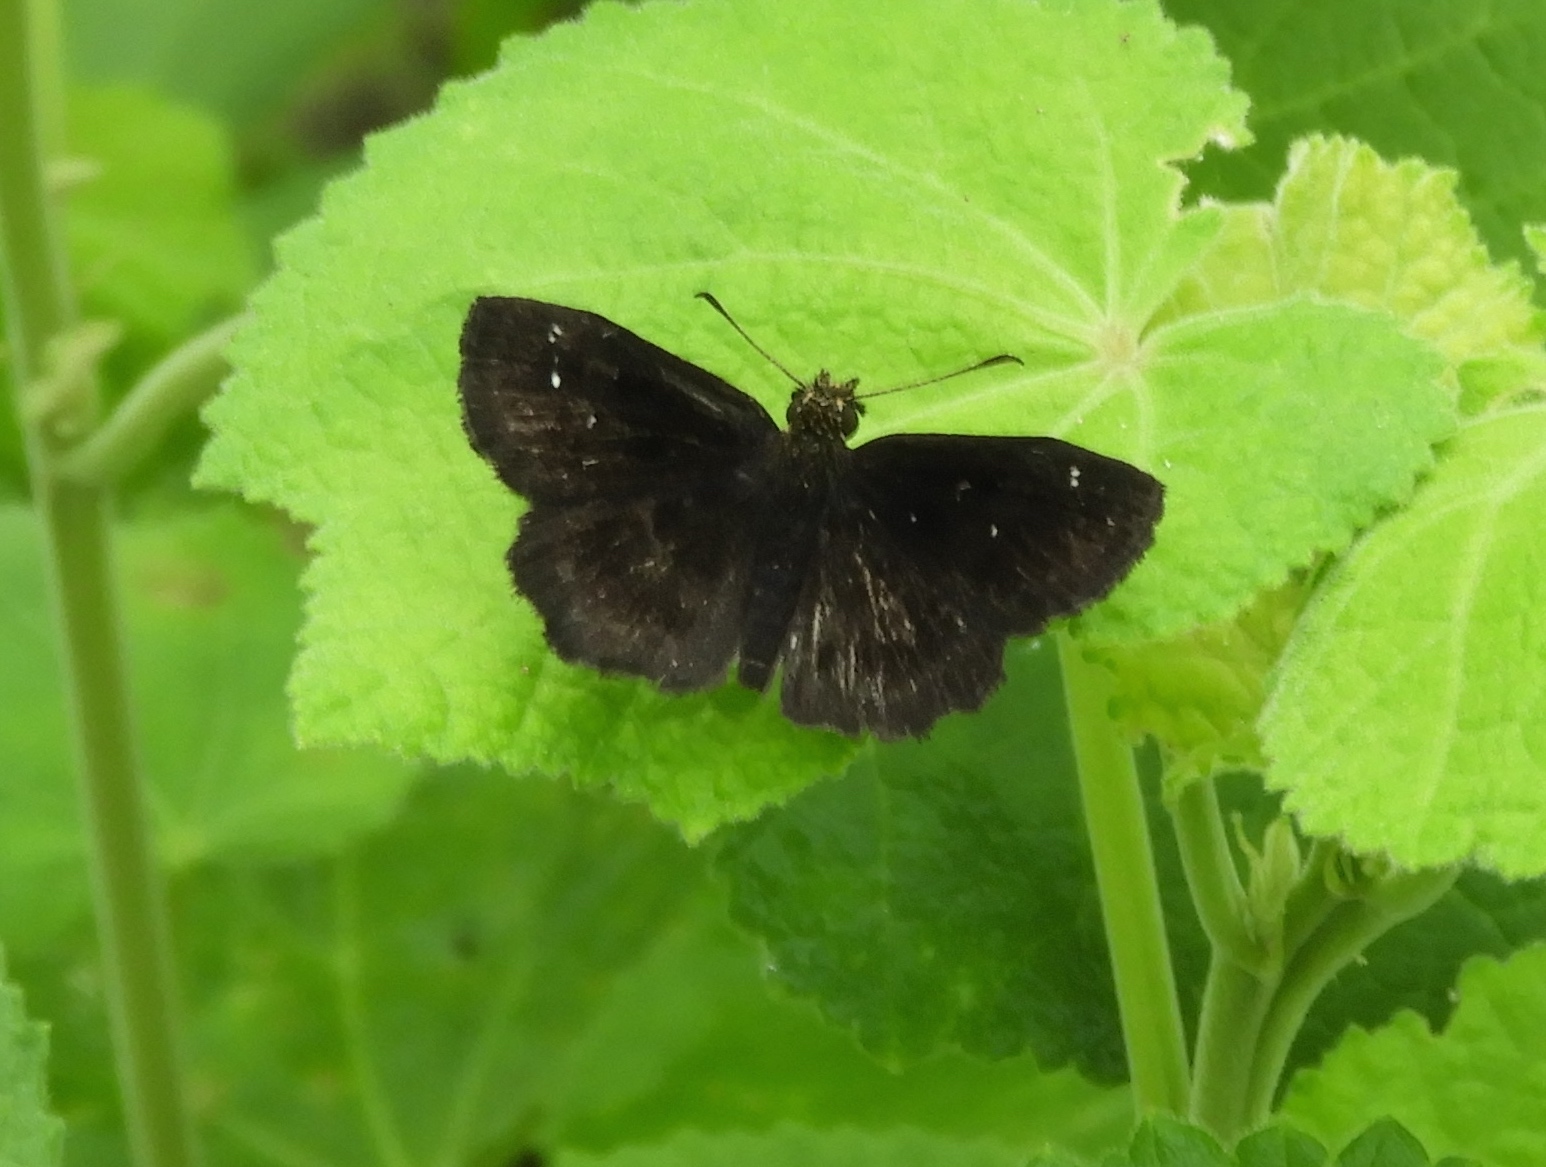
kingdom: Animalia
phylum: Arthropoda
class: Insecta
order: Lepidoptera
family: Hesperiidae
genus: Staphylus
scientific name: Staphylus mazans
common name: Mazans scallopwing
